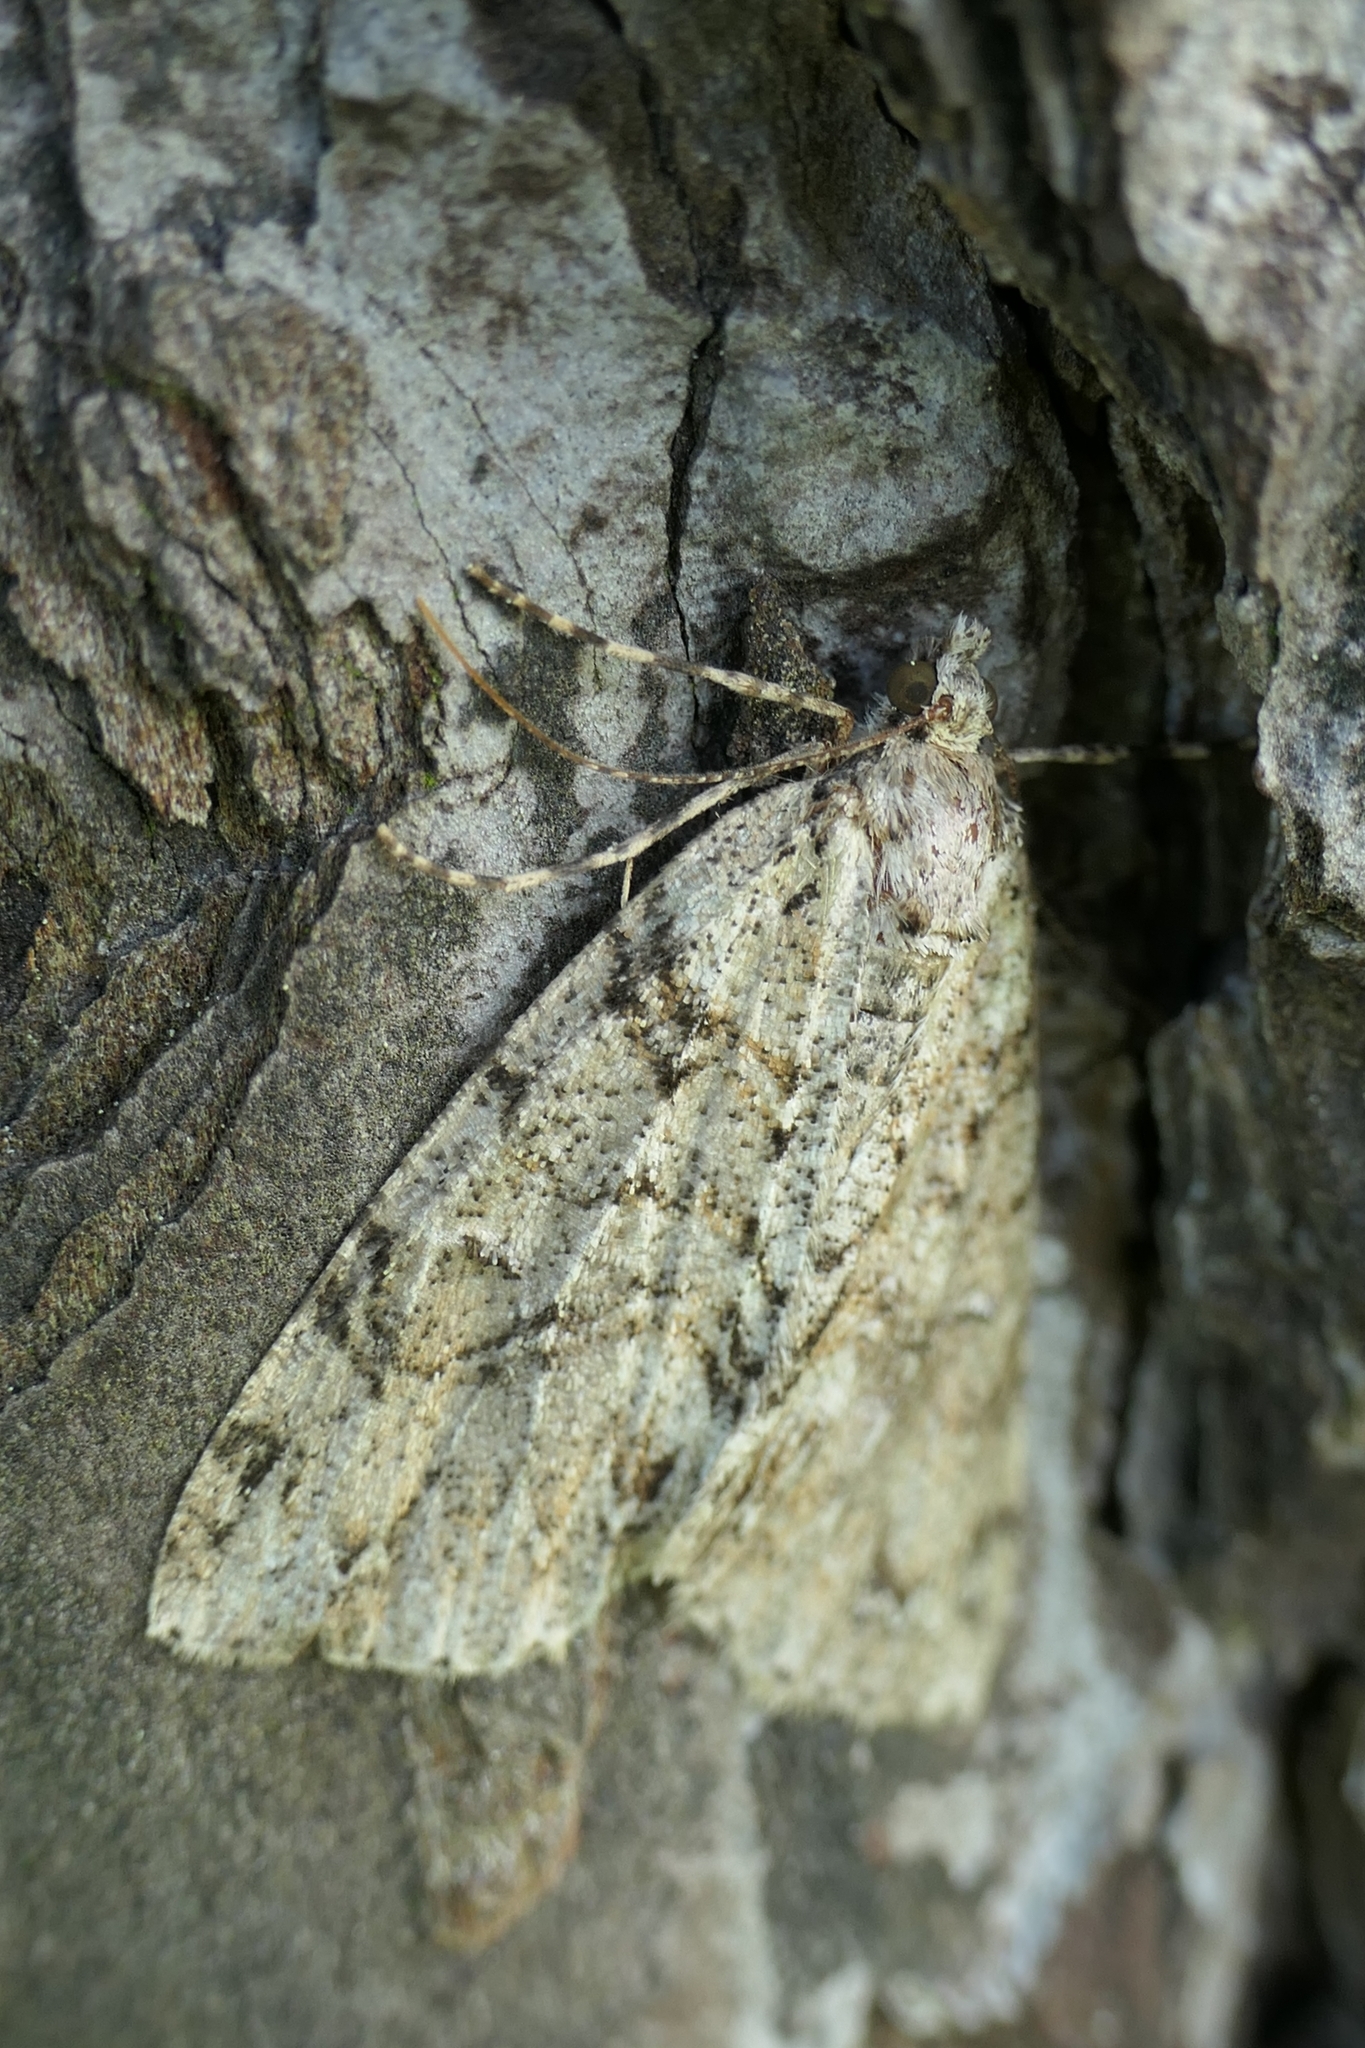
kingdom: Animalia
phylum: Arthropoda
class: Insecta
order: Lepidoptera
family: Geometridae
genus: Pseudocoremia
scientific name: Pseudocoremia suavis
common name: Common forest looper
